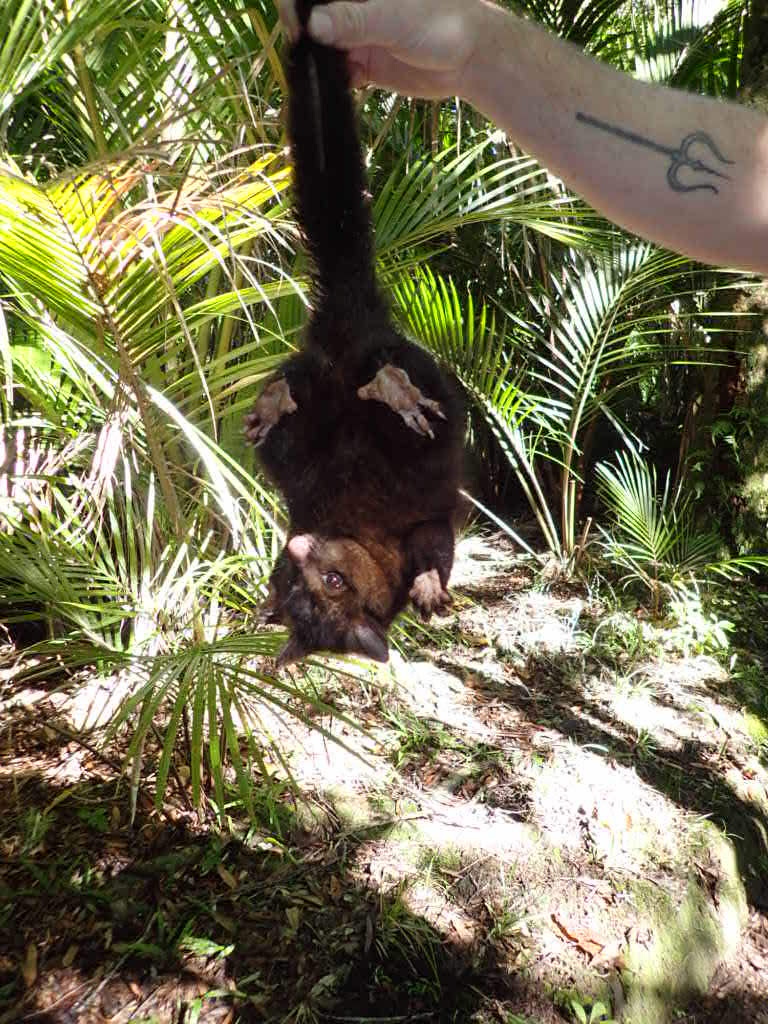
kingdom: Animalia
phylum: Chordata
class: Mammalia
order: Diprotodontia
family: Phalangeridae
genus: Trichosurus
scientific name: Trichosurus vulpecula
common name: Common brushtail
